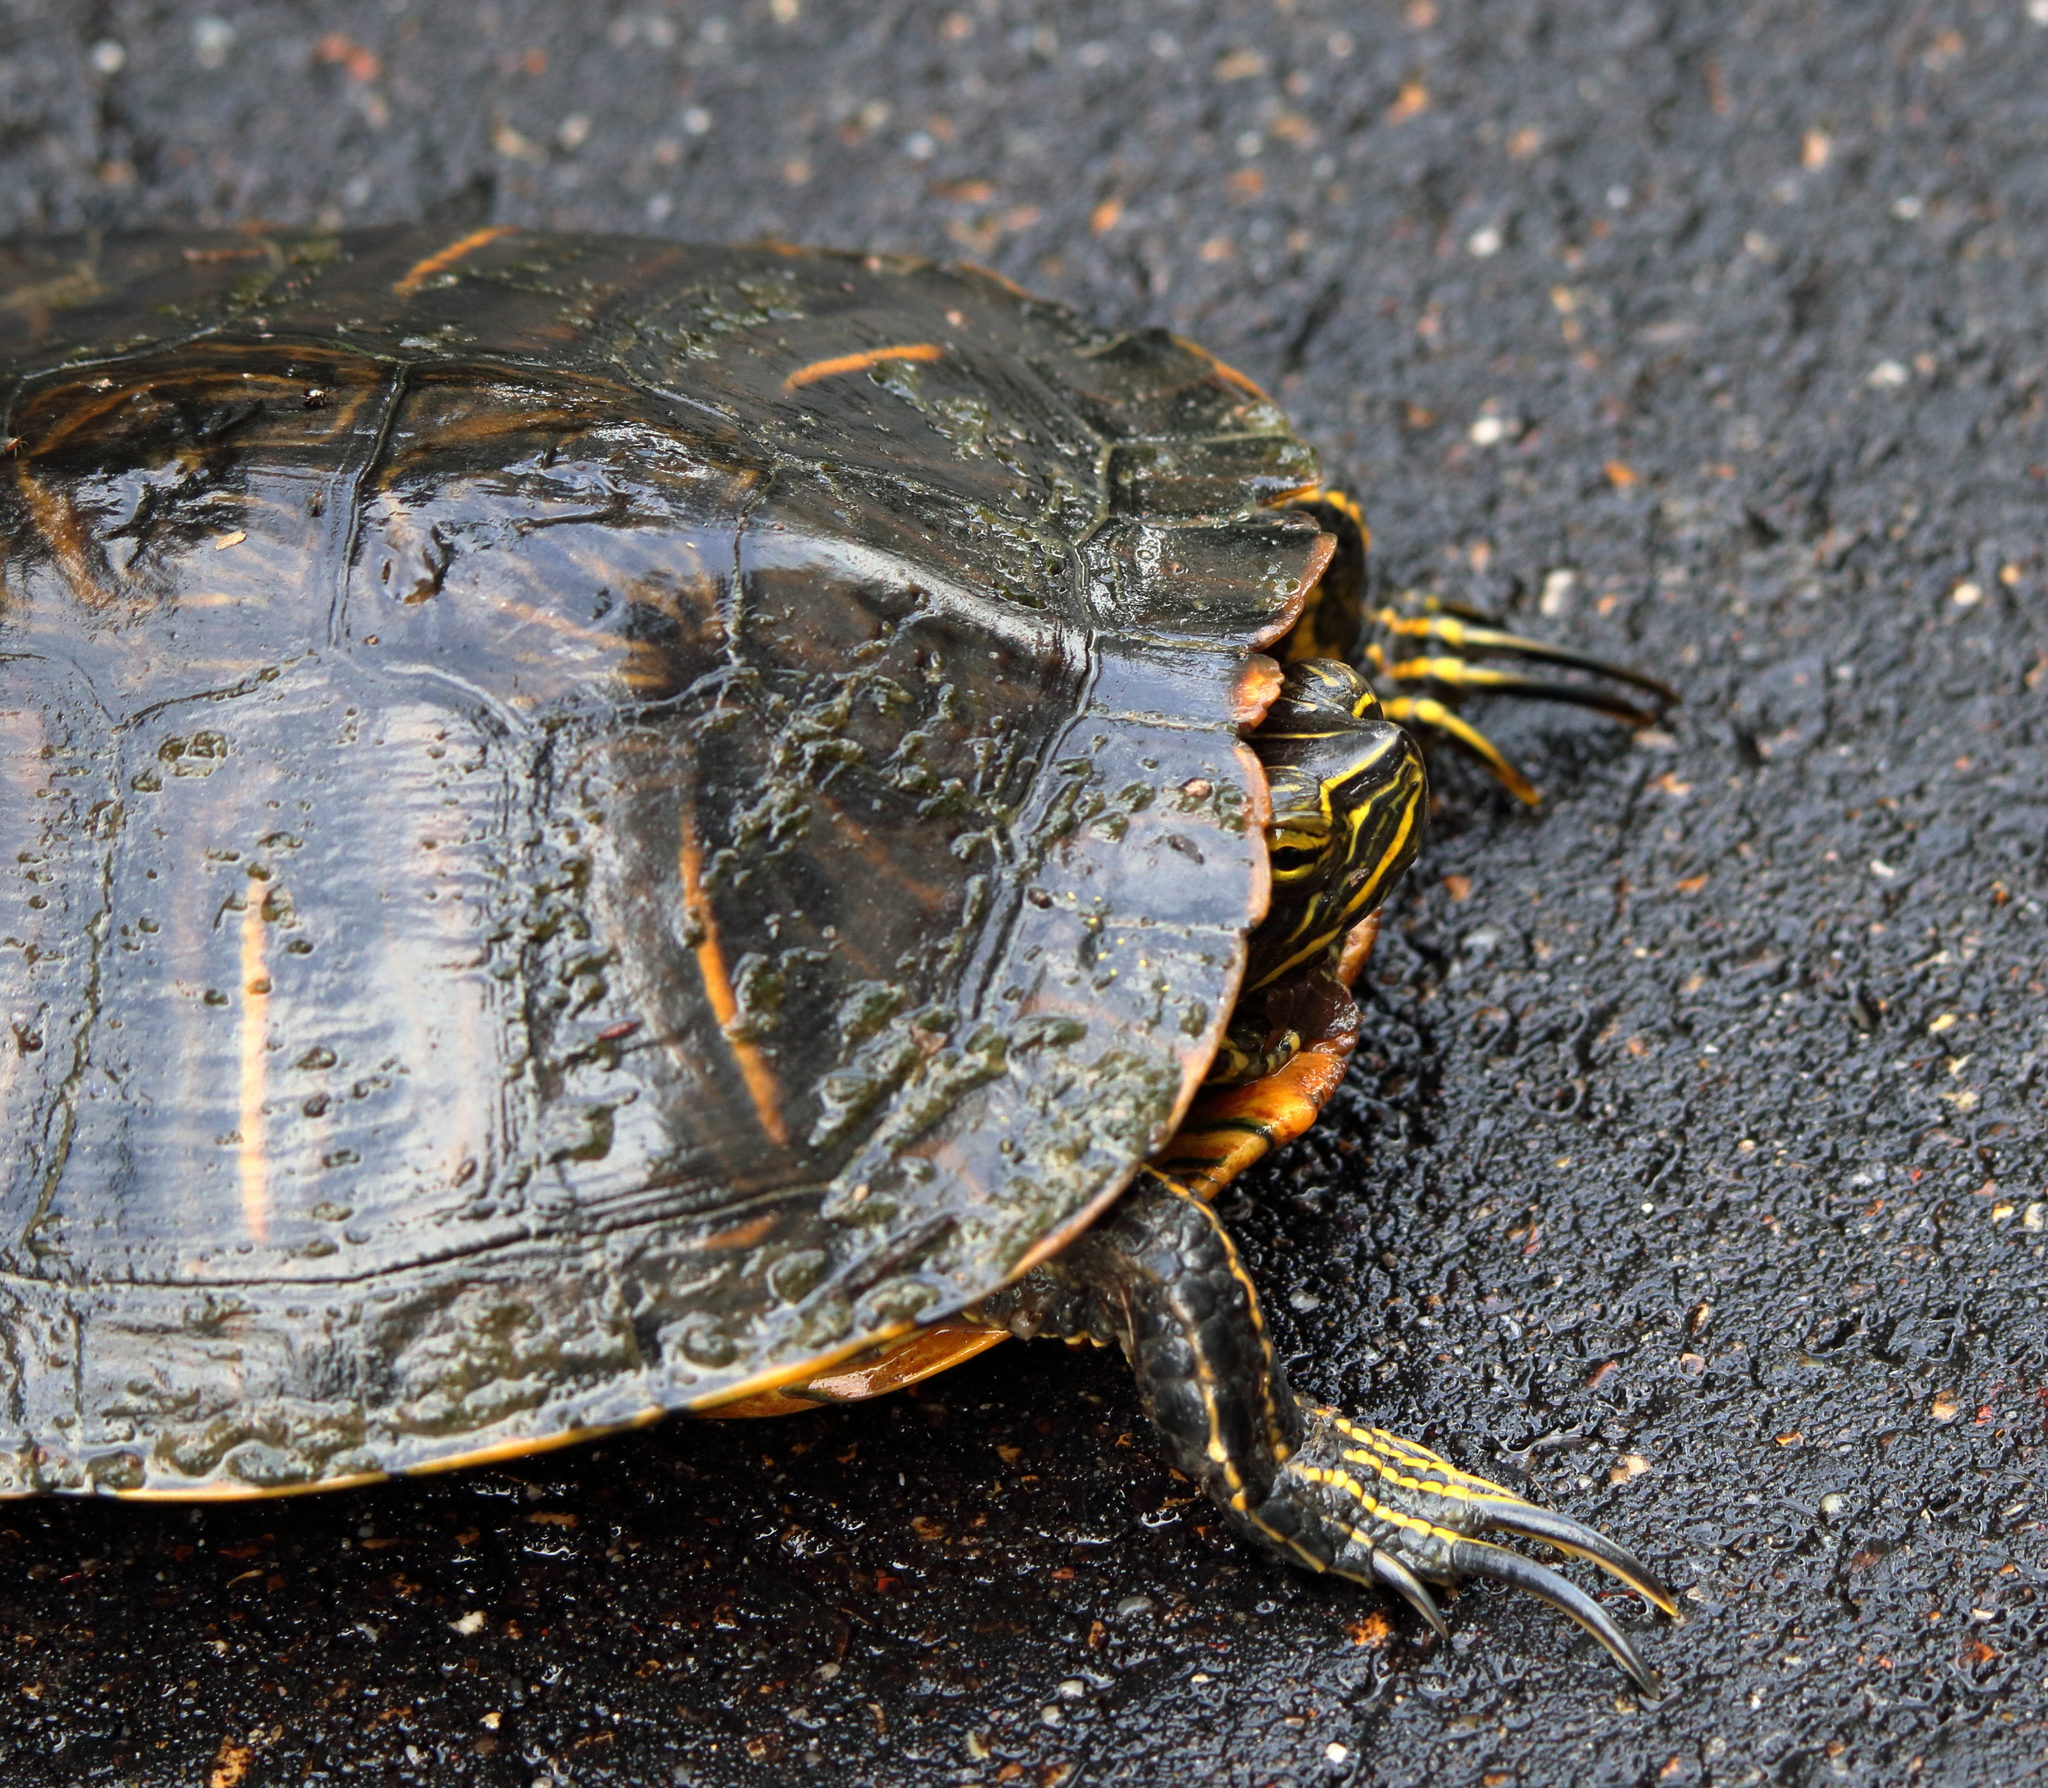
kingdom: Animalia
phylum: Chordata
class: Testudines
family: Emydidae
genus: Trachemys
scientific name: Trachemys scripta
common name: Slider
